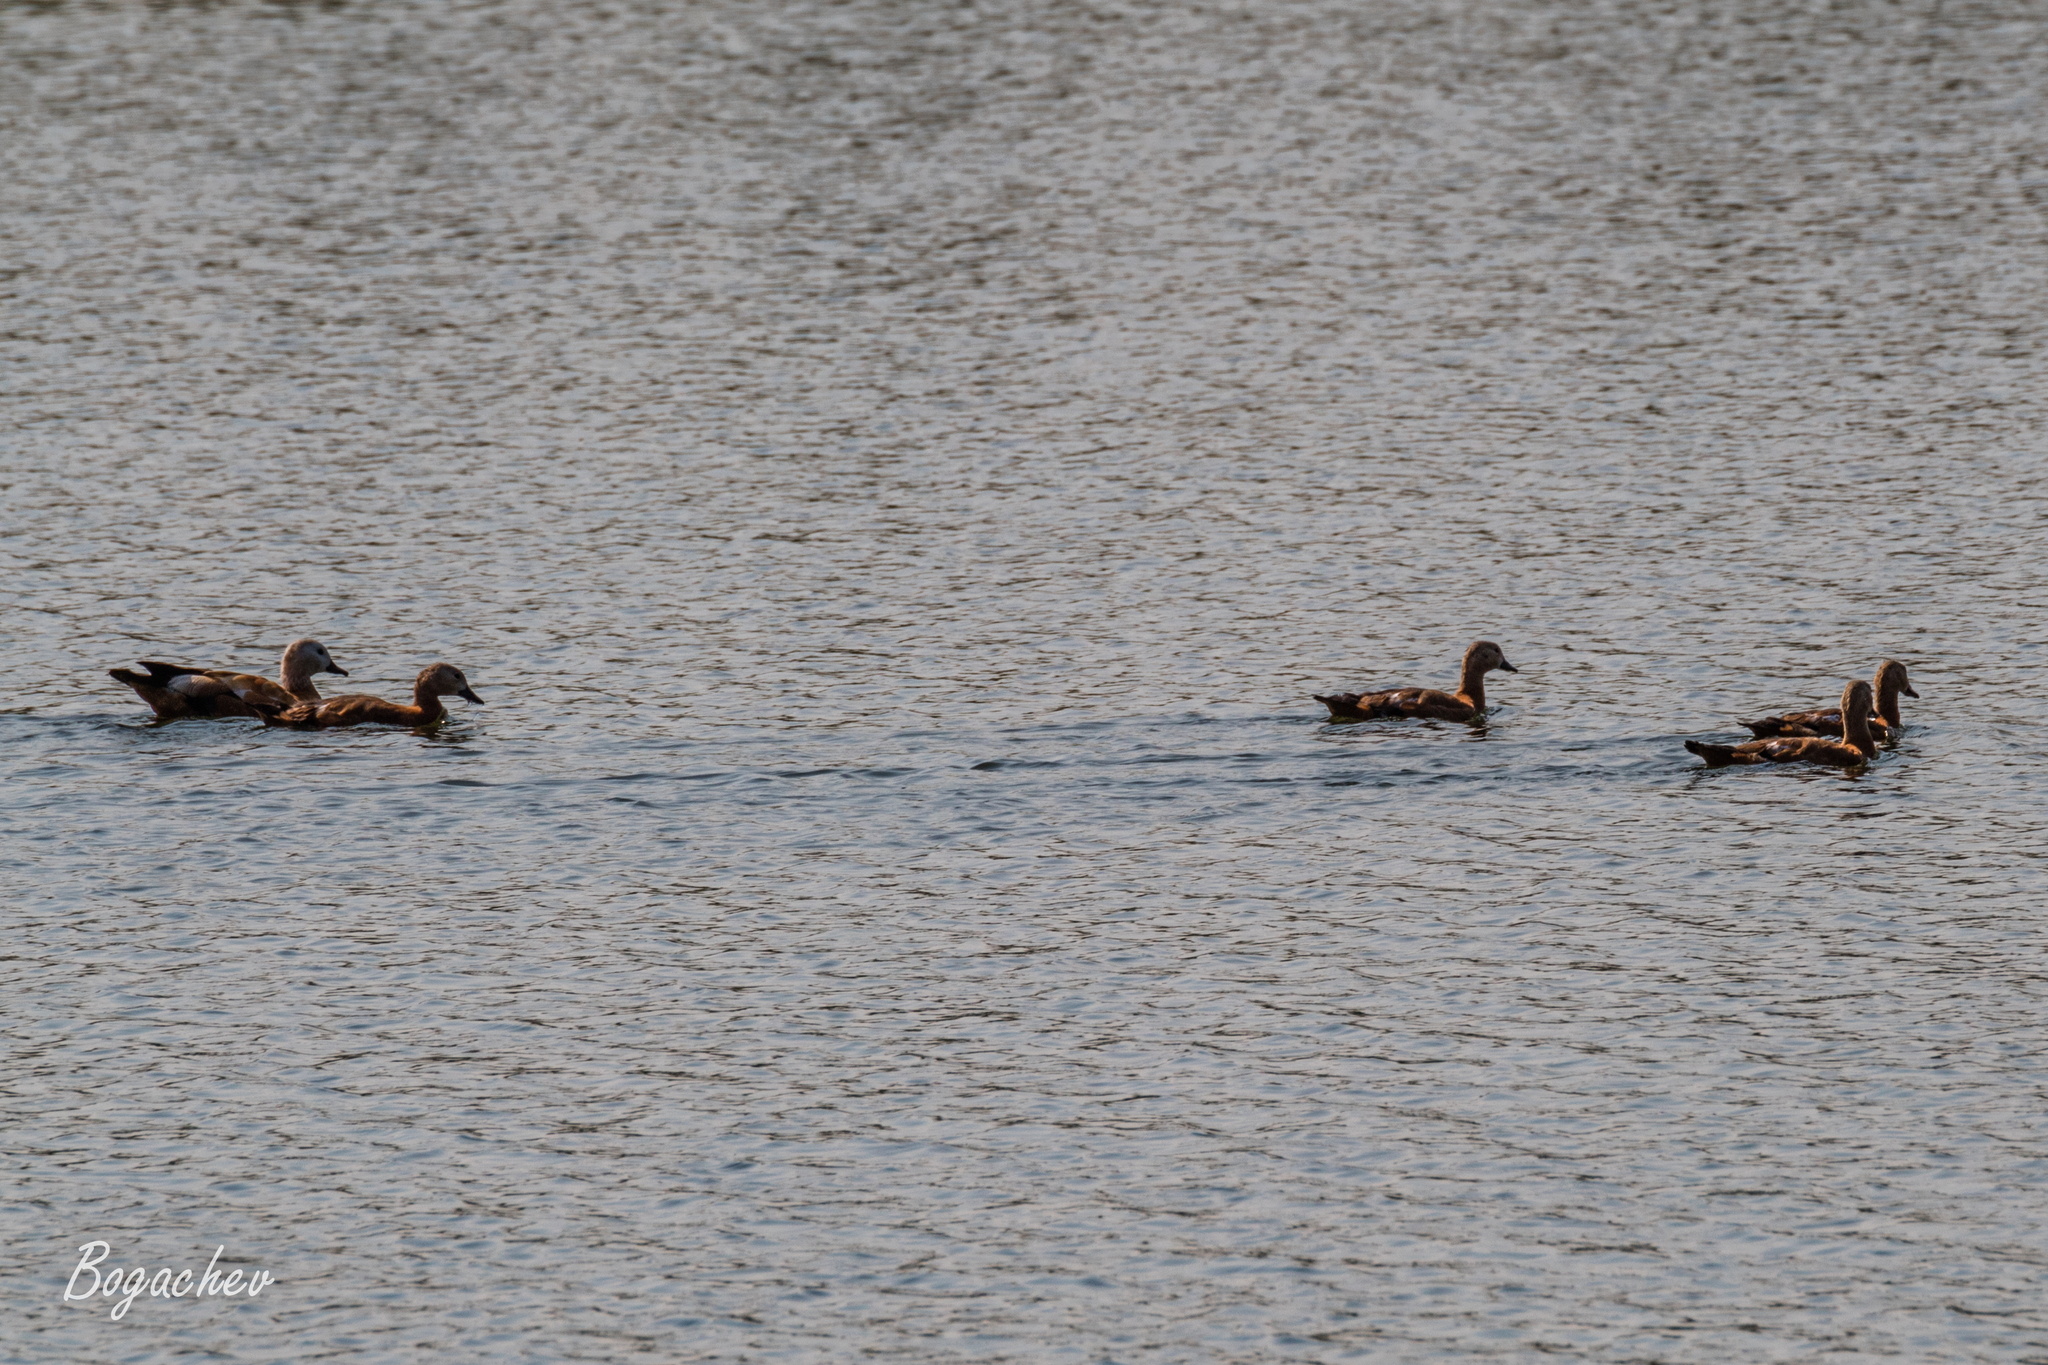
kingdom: Animalia
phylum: Chordata
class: Aves
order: Anseriformes
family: Anatidae
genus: Tadorna
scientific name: Tadorna ferruginea
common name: Ruddy shelduck
